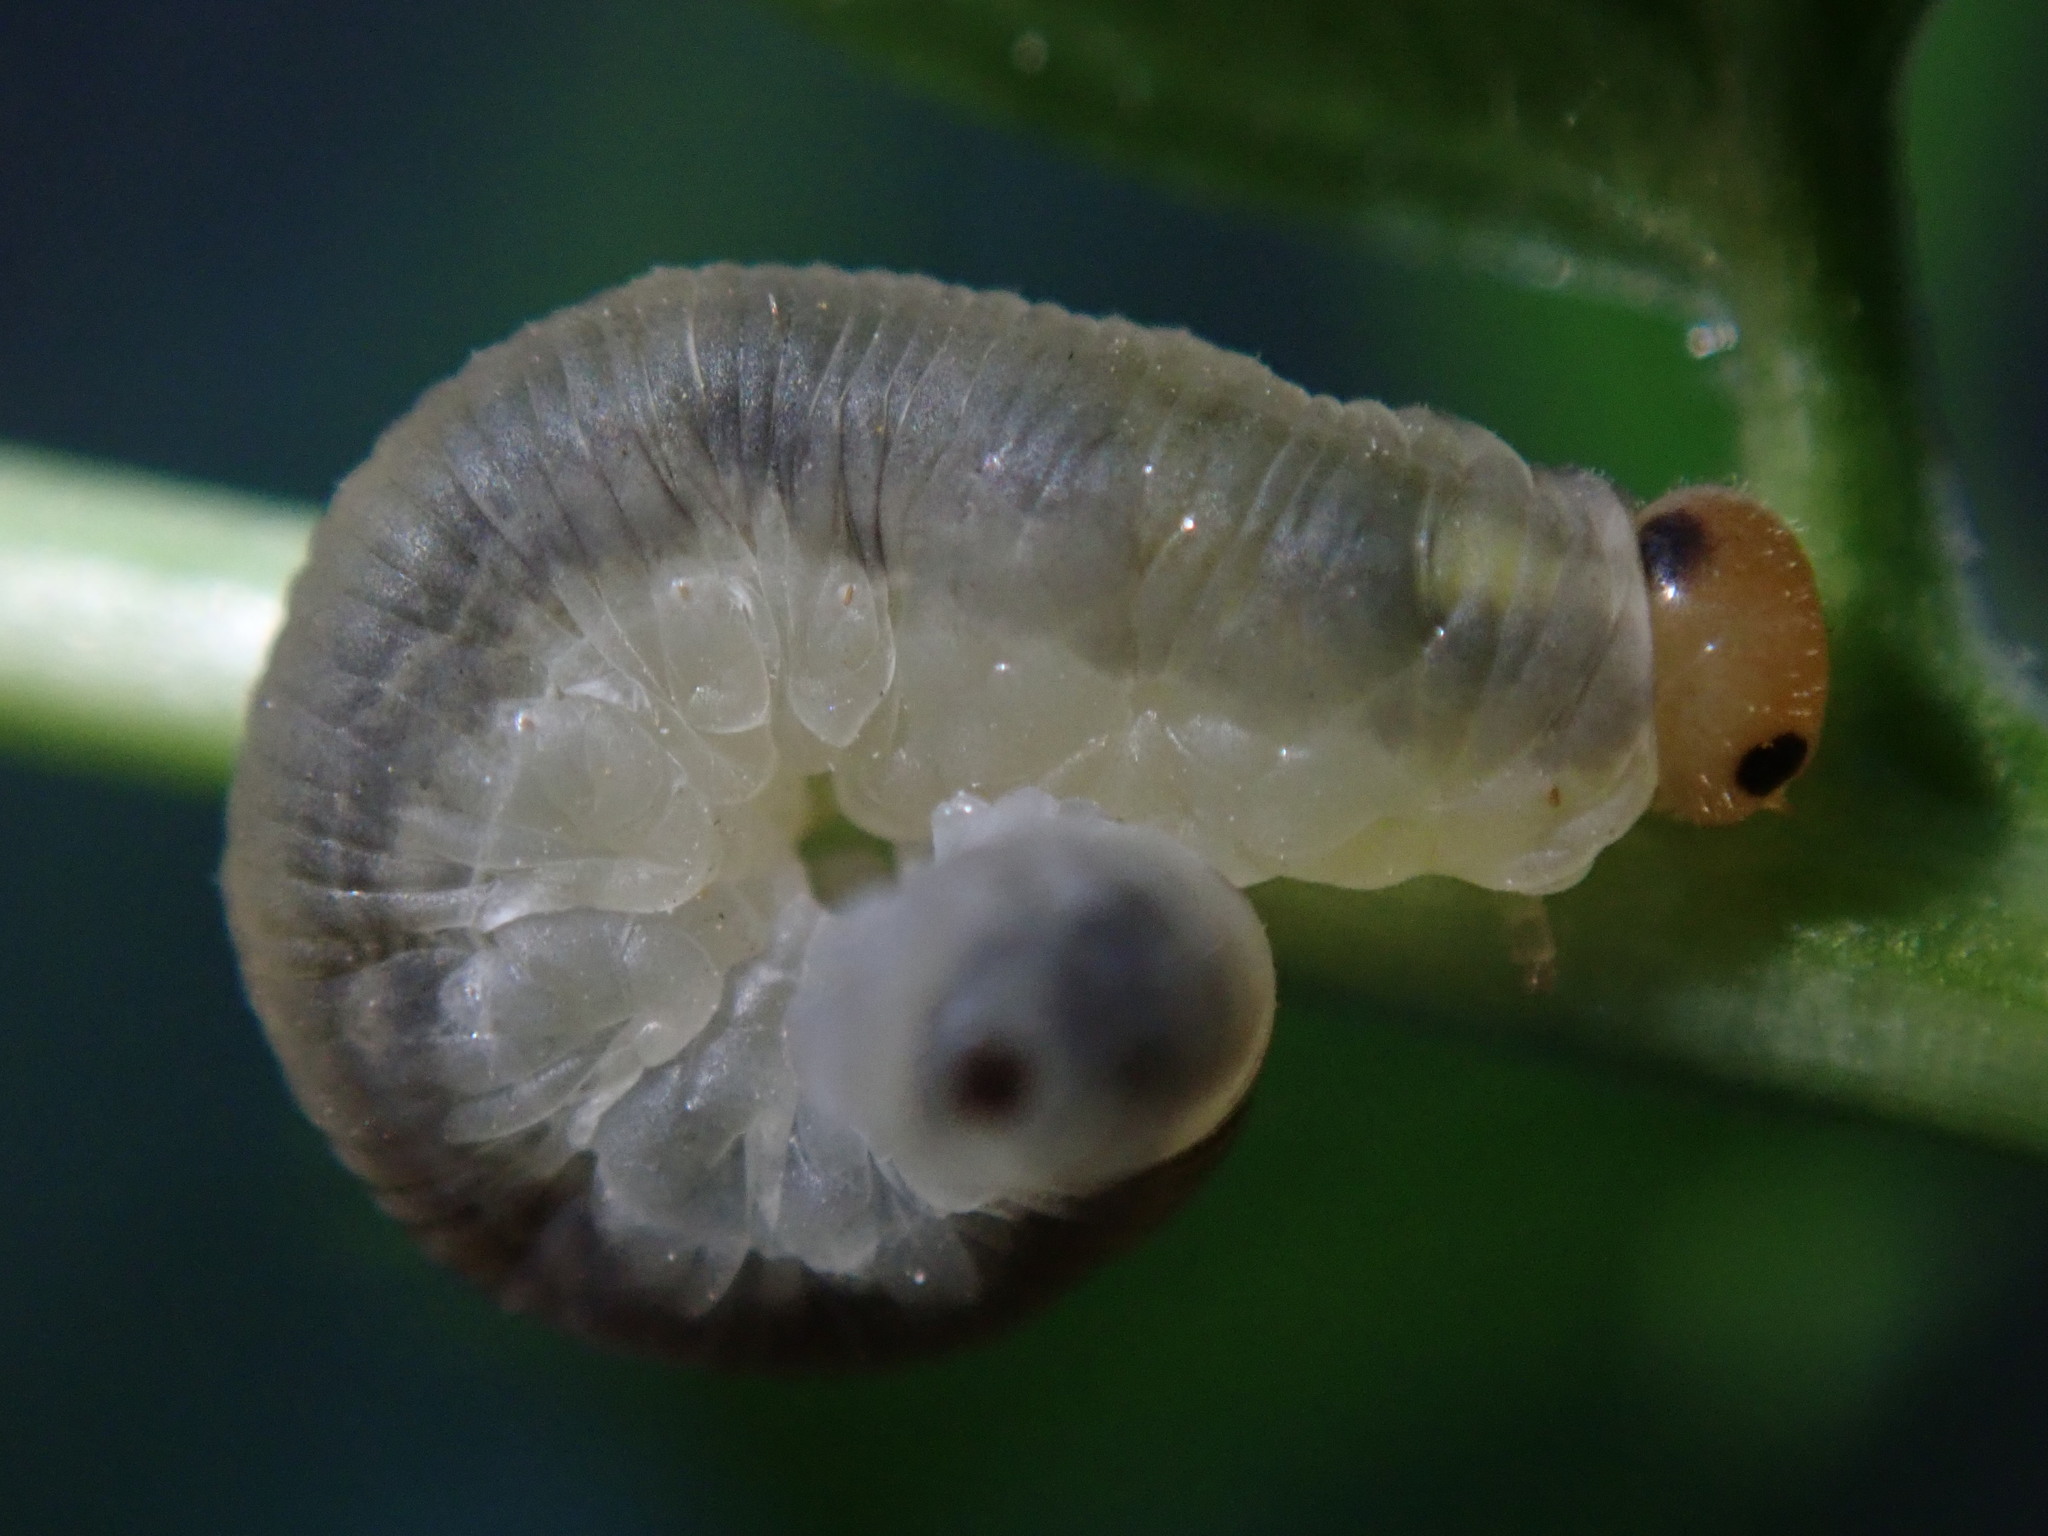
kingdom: Animalia
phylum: Arthropoda
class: Insecta
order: Hymenoptera
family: Tenthredinidae
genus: Macrophya
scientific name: Macrophya ribis
